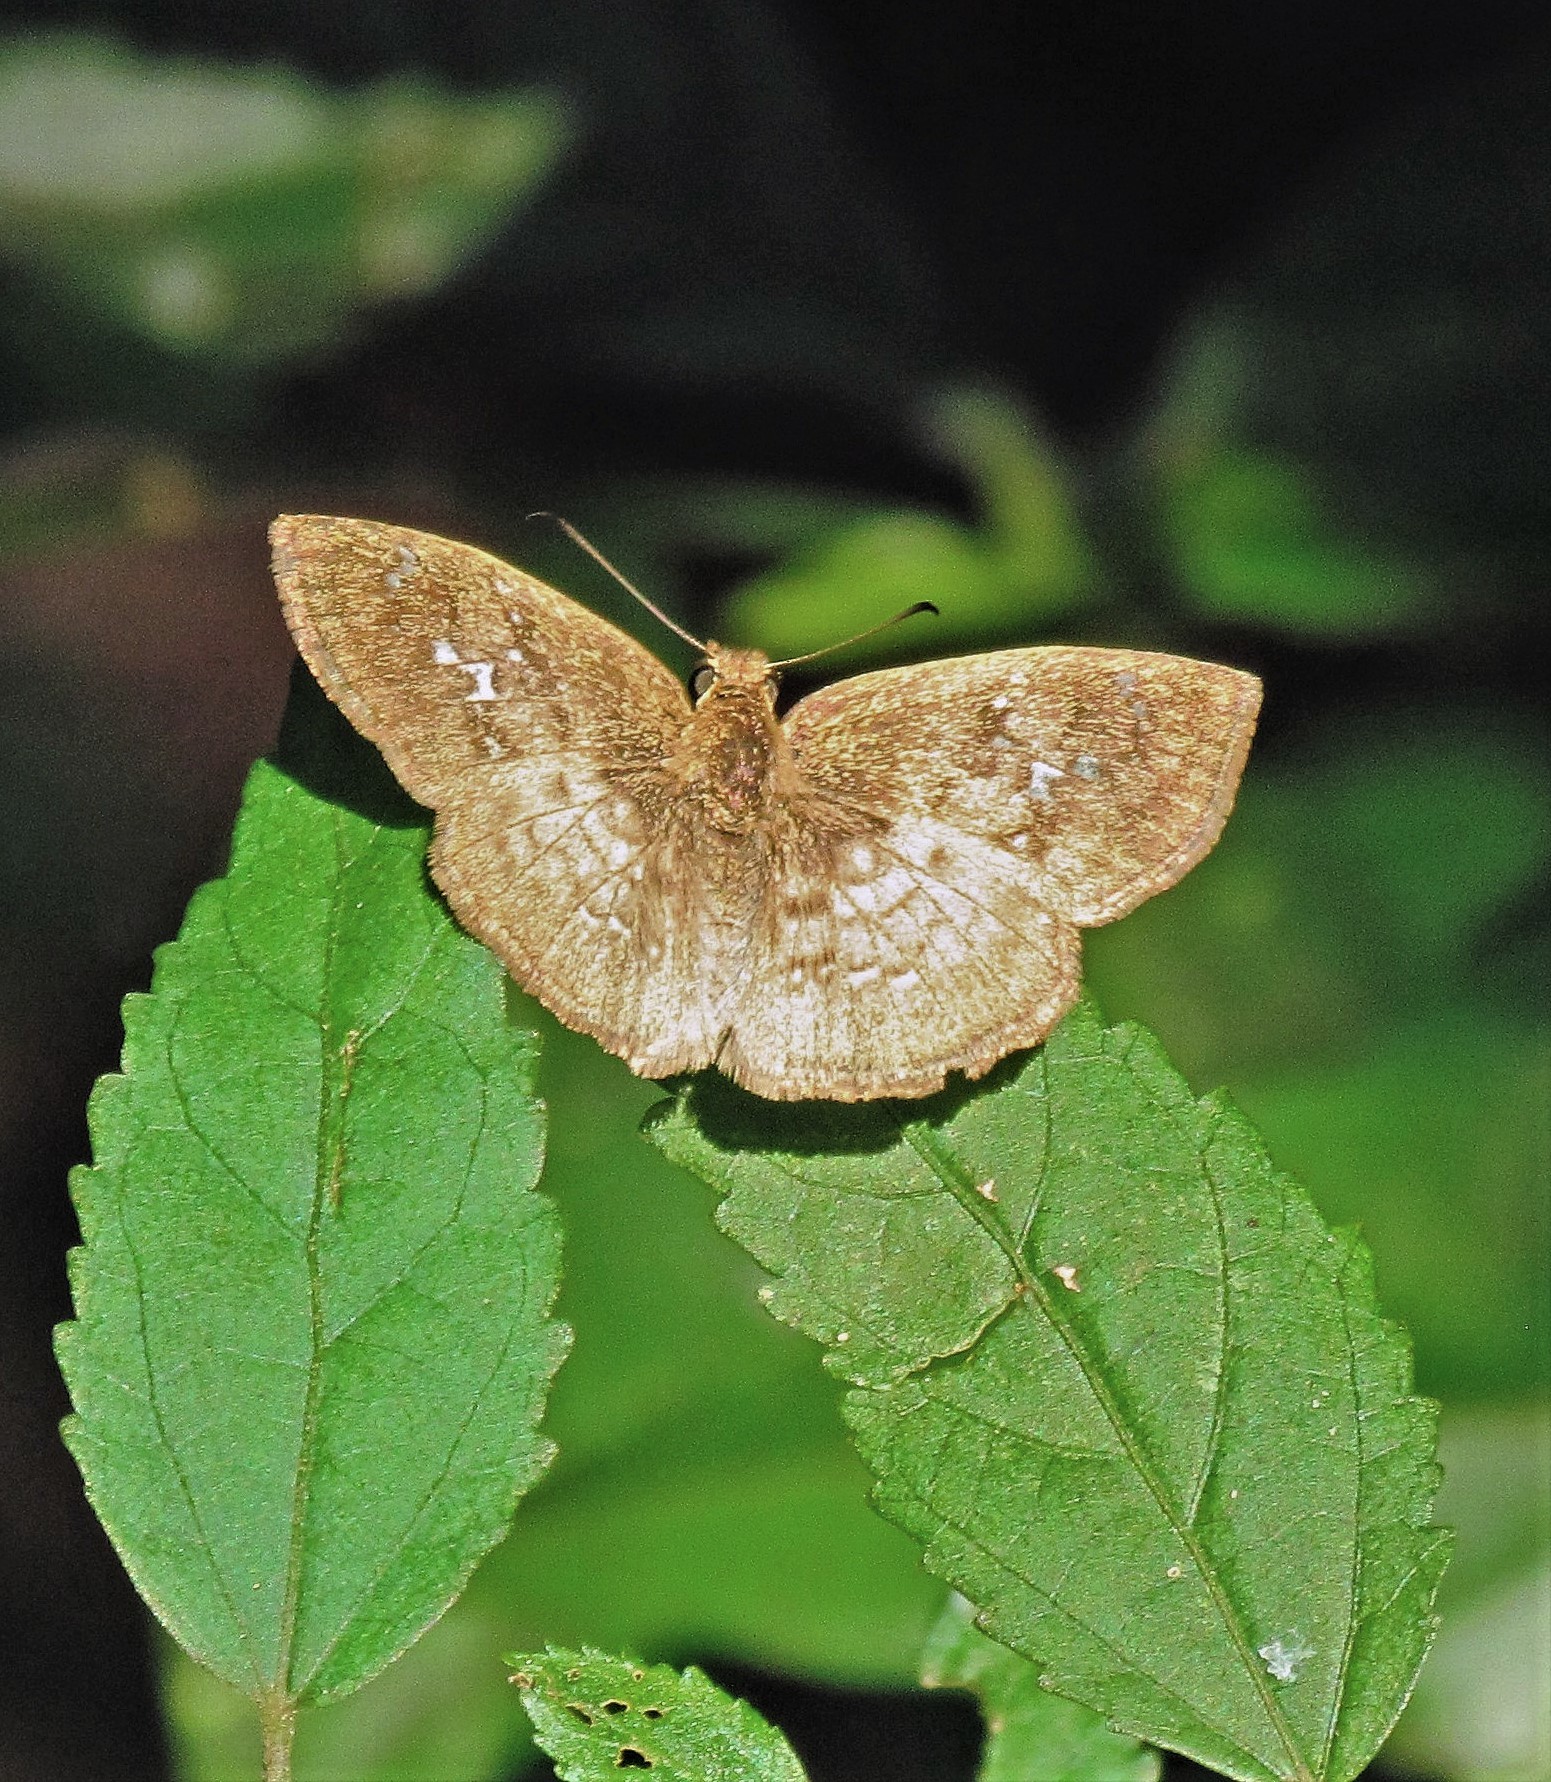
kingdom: Animalia
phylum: Arthropoda
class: Insecta
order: Lepidoptera
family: Hesperiidae
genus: Canesia
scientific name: Canesia
